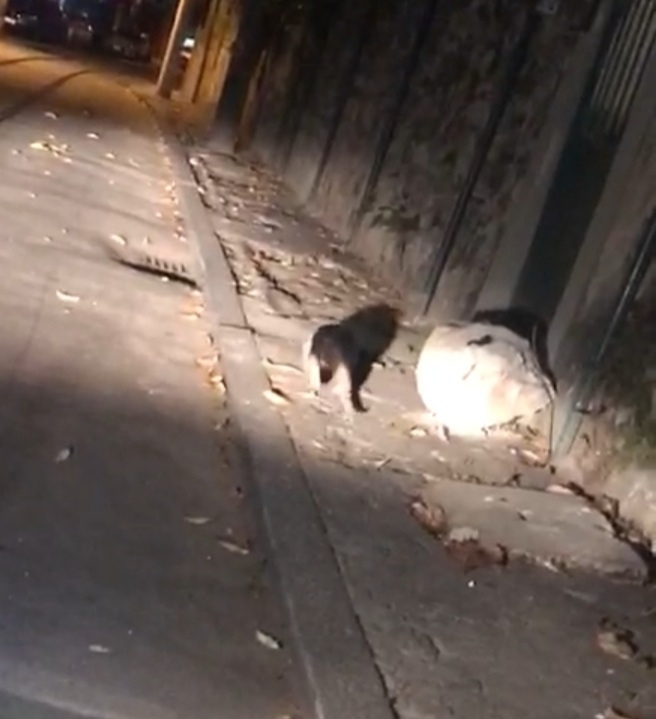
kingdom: Animalia
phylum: Chordata
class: Mammalia
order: Pilosa
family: Myrmecophagidae
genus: Tamandua
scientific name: Tamandua tetradactyla
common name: Southern tamandua
